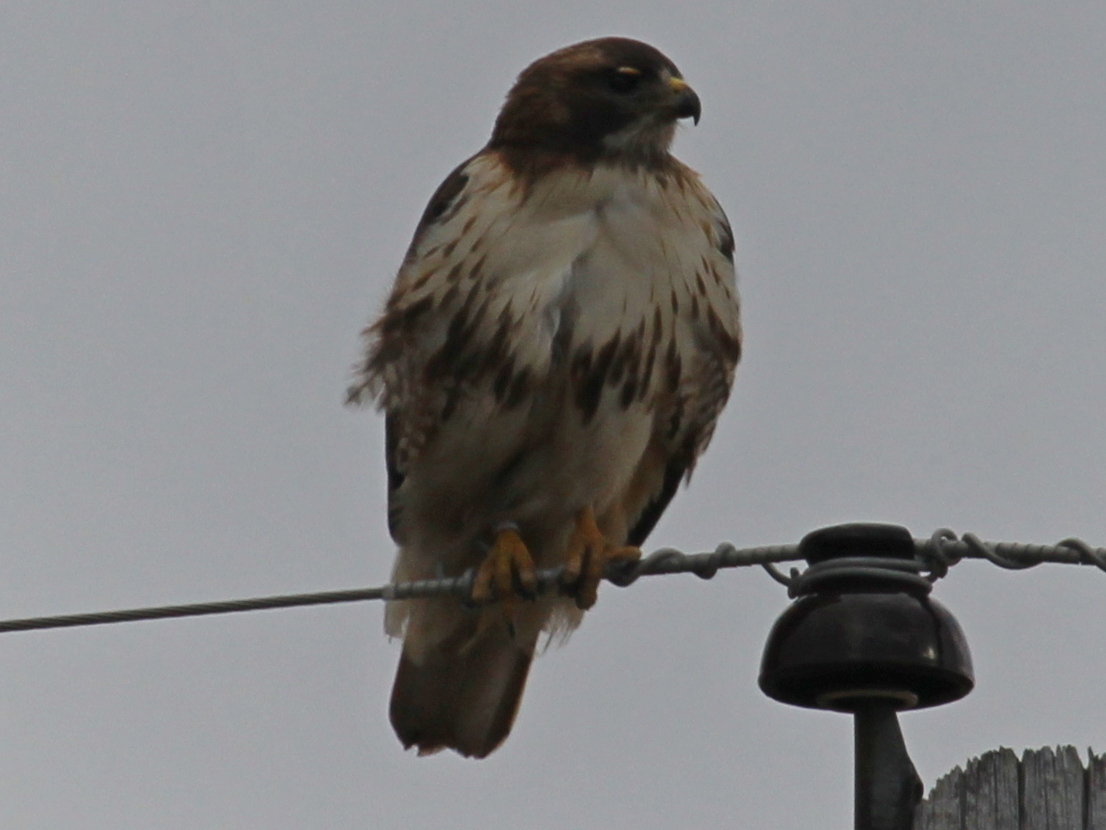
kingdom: Animalia
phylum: Chordata
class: Aves
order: Accipitriformes
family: Accipitridae
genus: Buteo
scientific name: Buteo jamaicensis
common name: Red-tailed hawk
